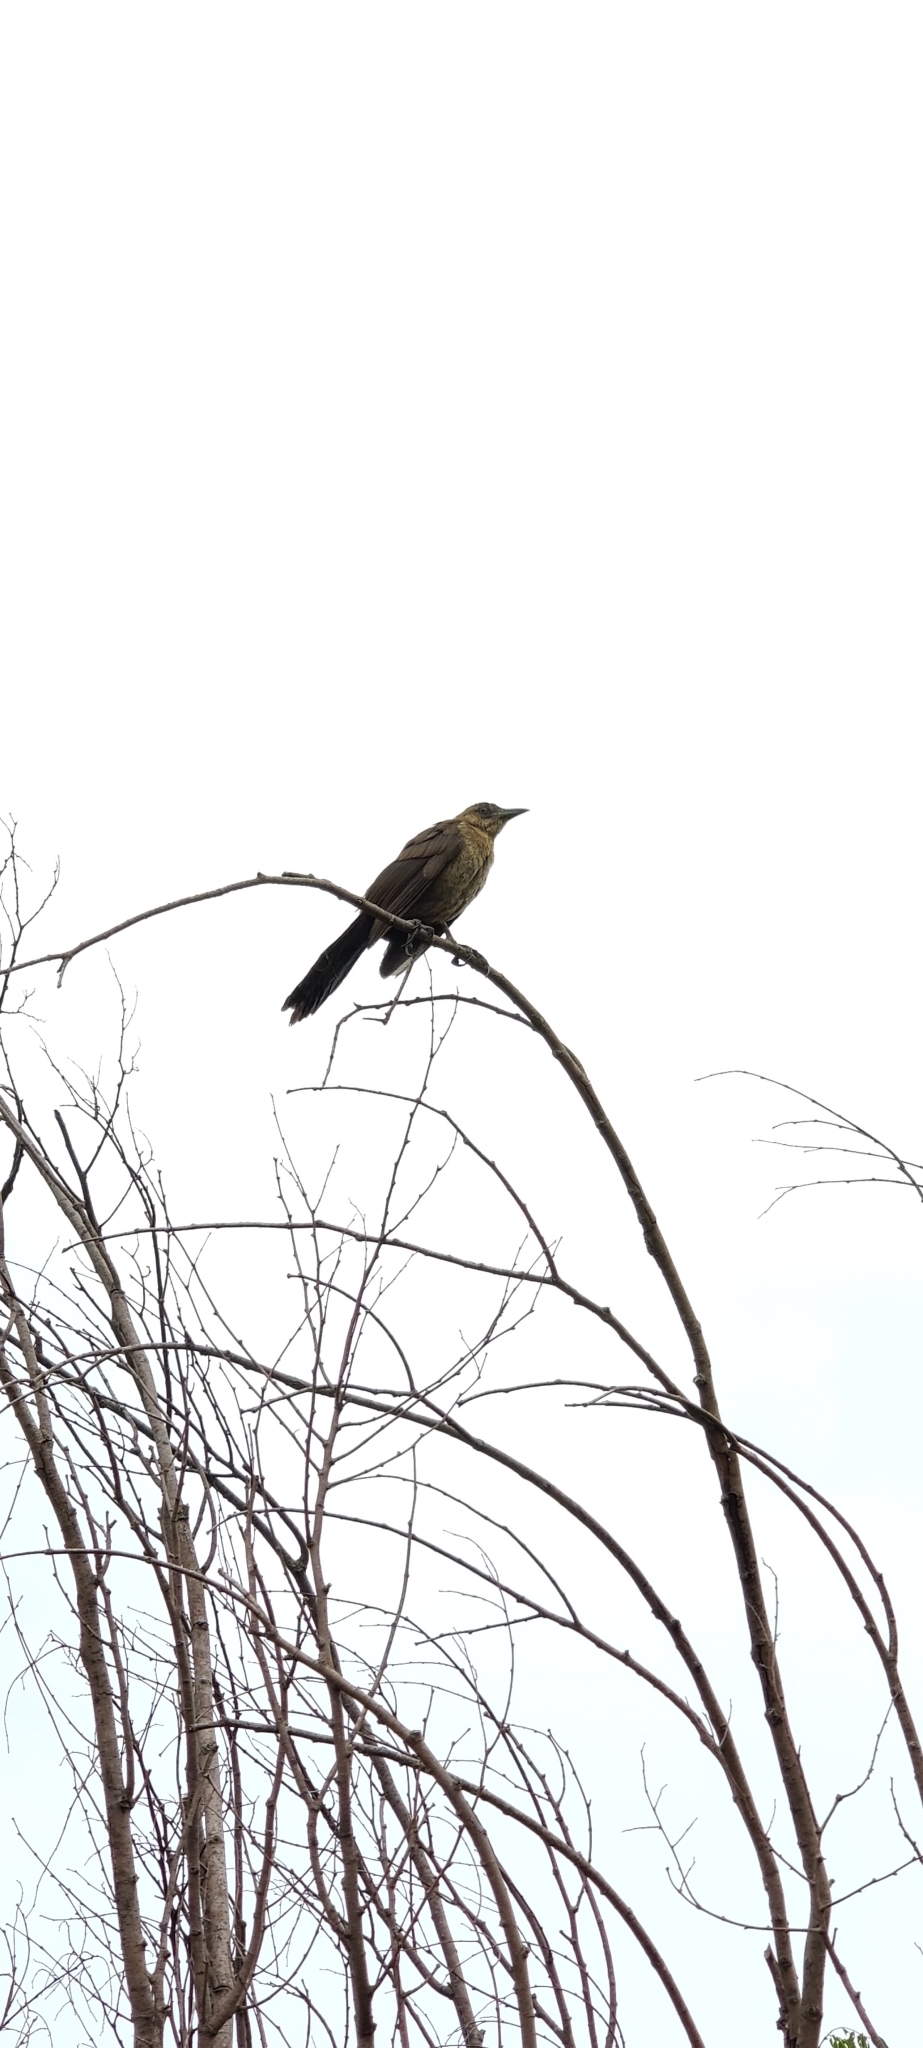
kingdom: Animalia
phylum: Chordata
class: Aves
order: Passeriformes
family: Icteridae
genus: Quiscalus
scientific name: Quiscalus mexicanus
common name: Great-tailed grackle
